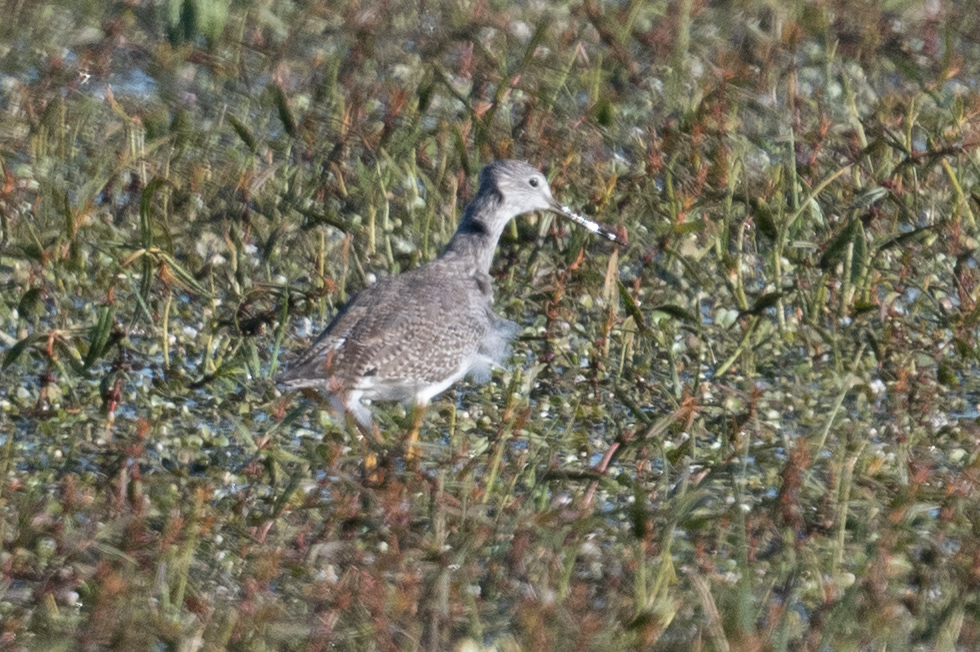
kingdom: Animalia
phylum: Chordata
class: Aves
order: Charadriiformes
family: Scolopacidae
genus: Tringa
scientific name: Tringa melanoleuca
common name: Greater yellowlegs
